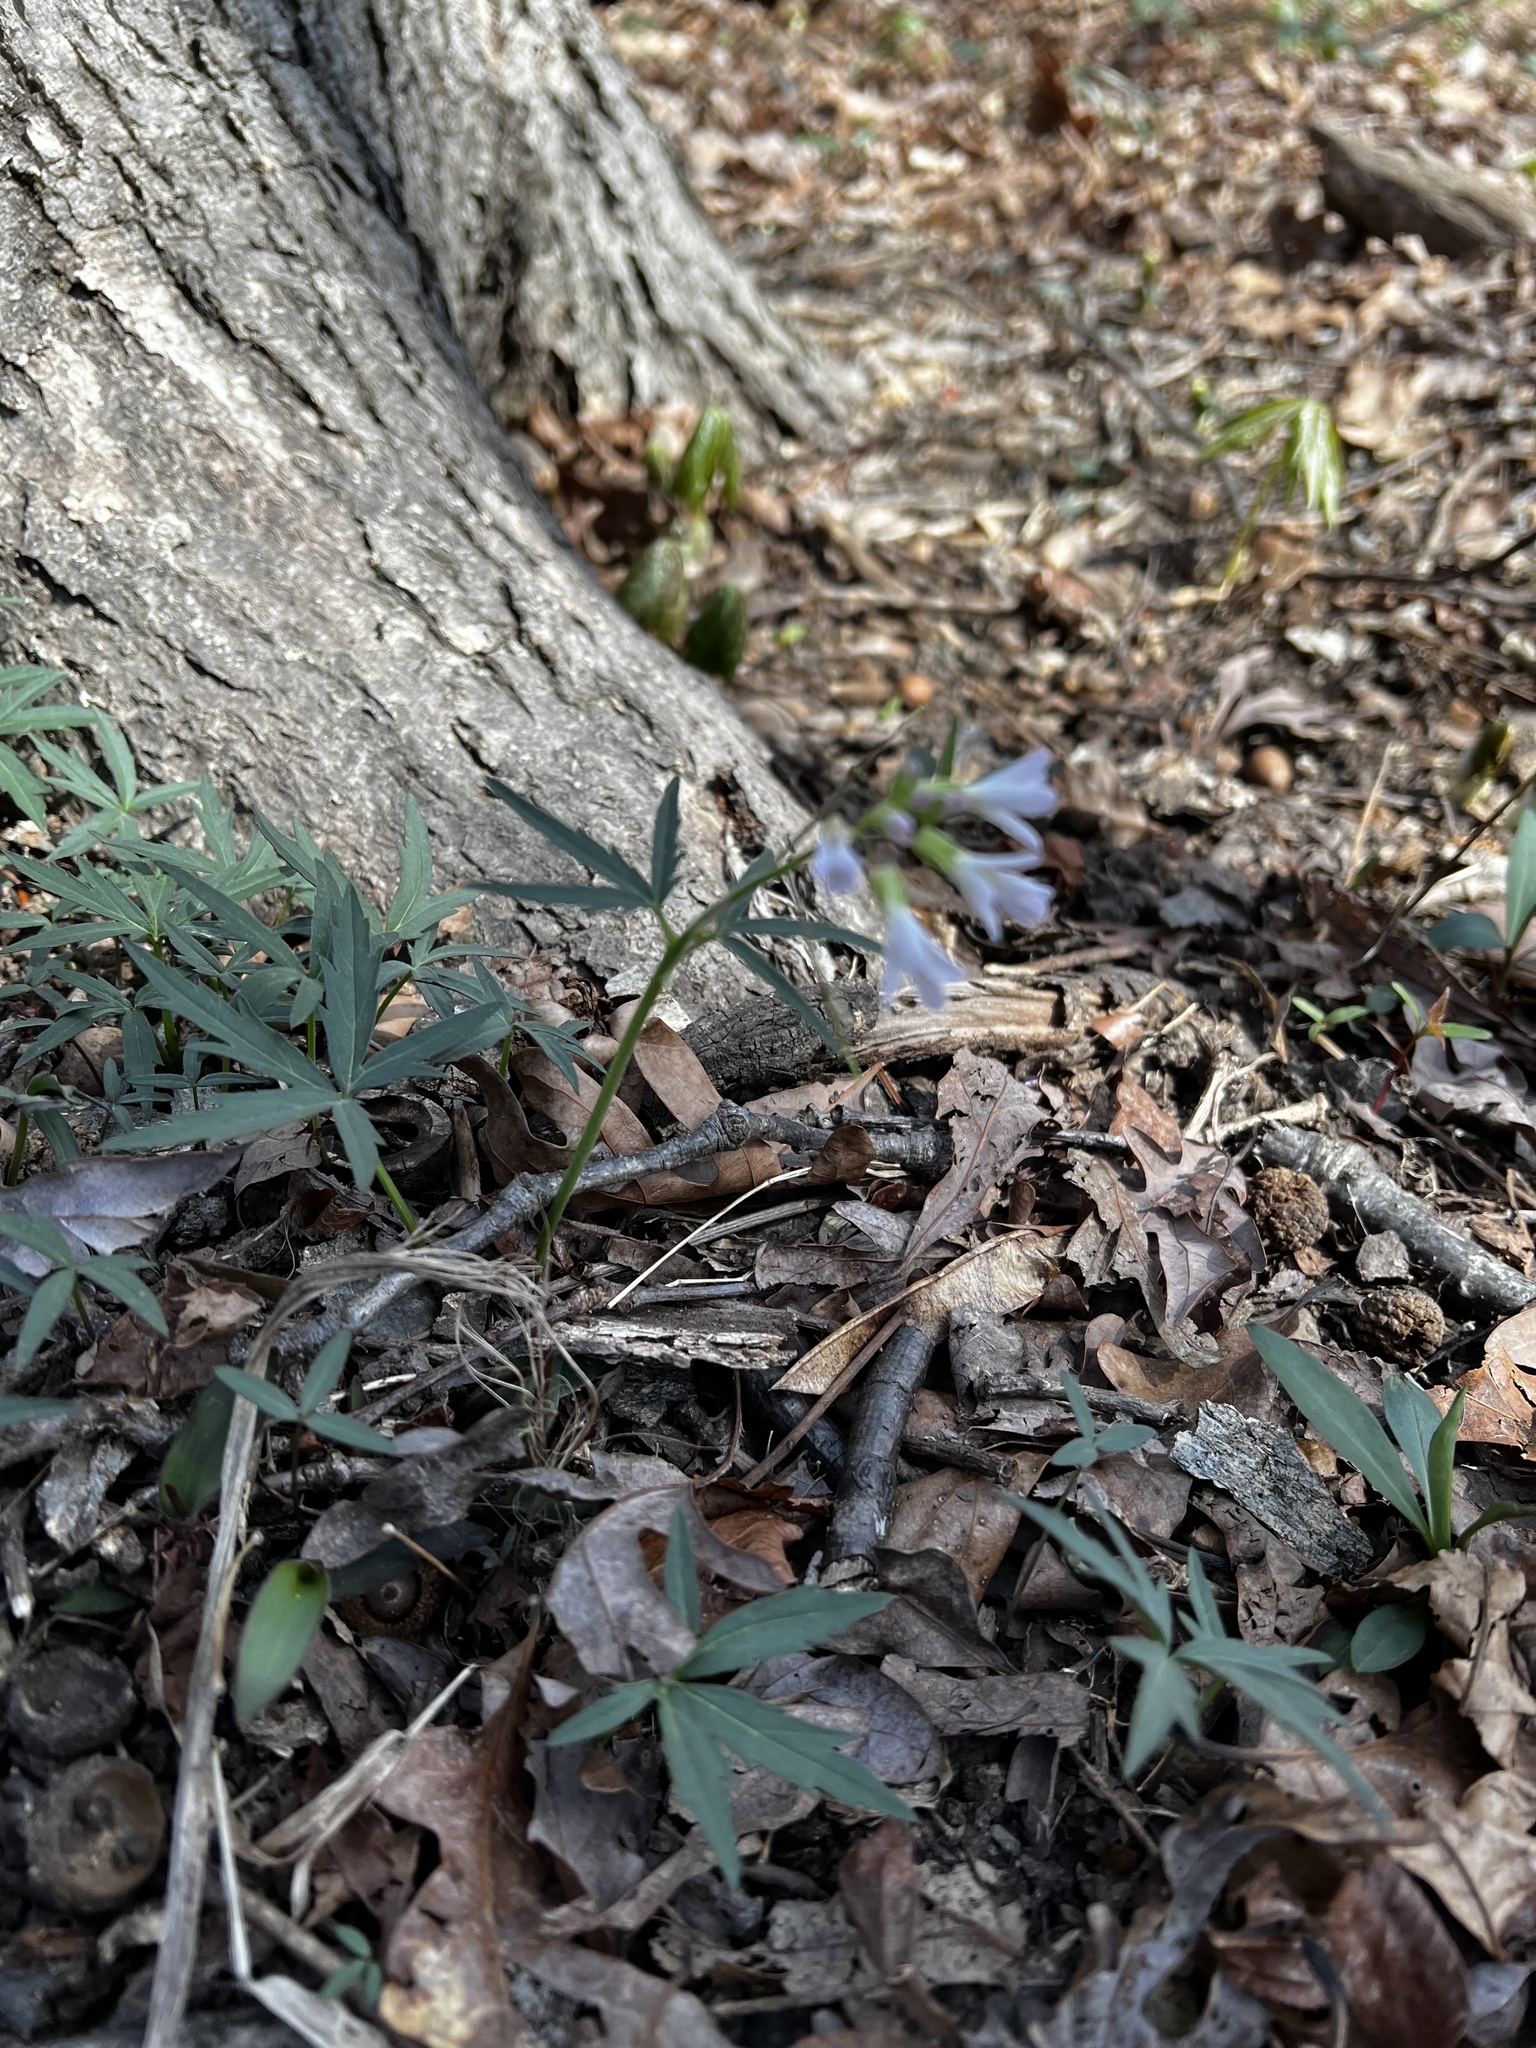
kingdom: Plantae
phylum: Tracheophyta
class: Magnoliopsida
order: Brassicales
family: Brassicaceae
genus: Cardamine
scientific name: Cardamine concatenata
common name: Cut-leaf toothcup
